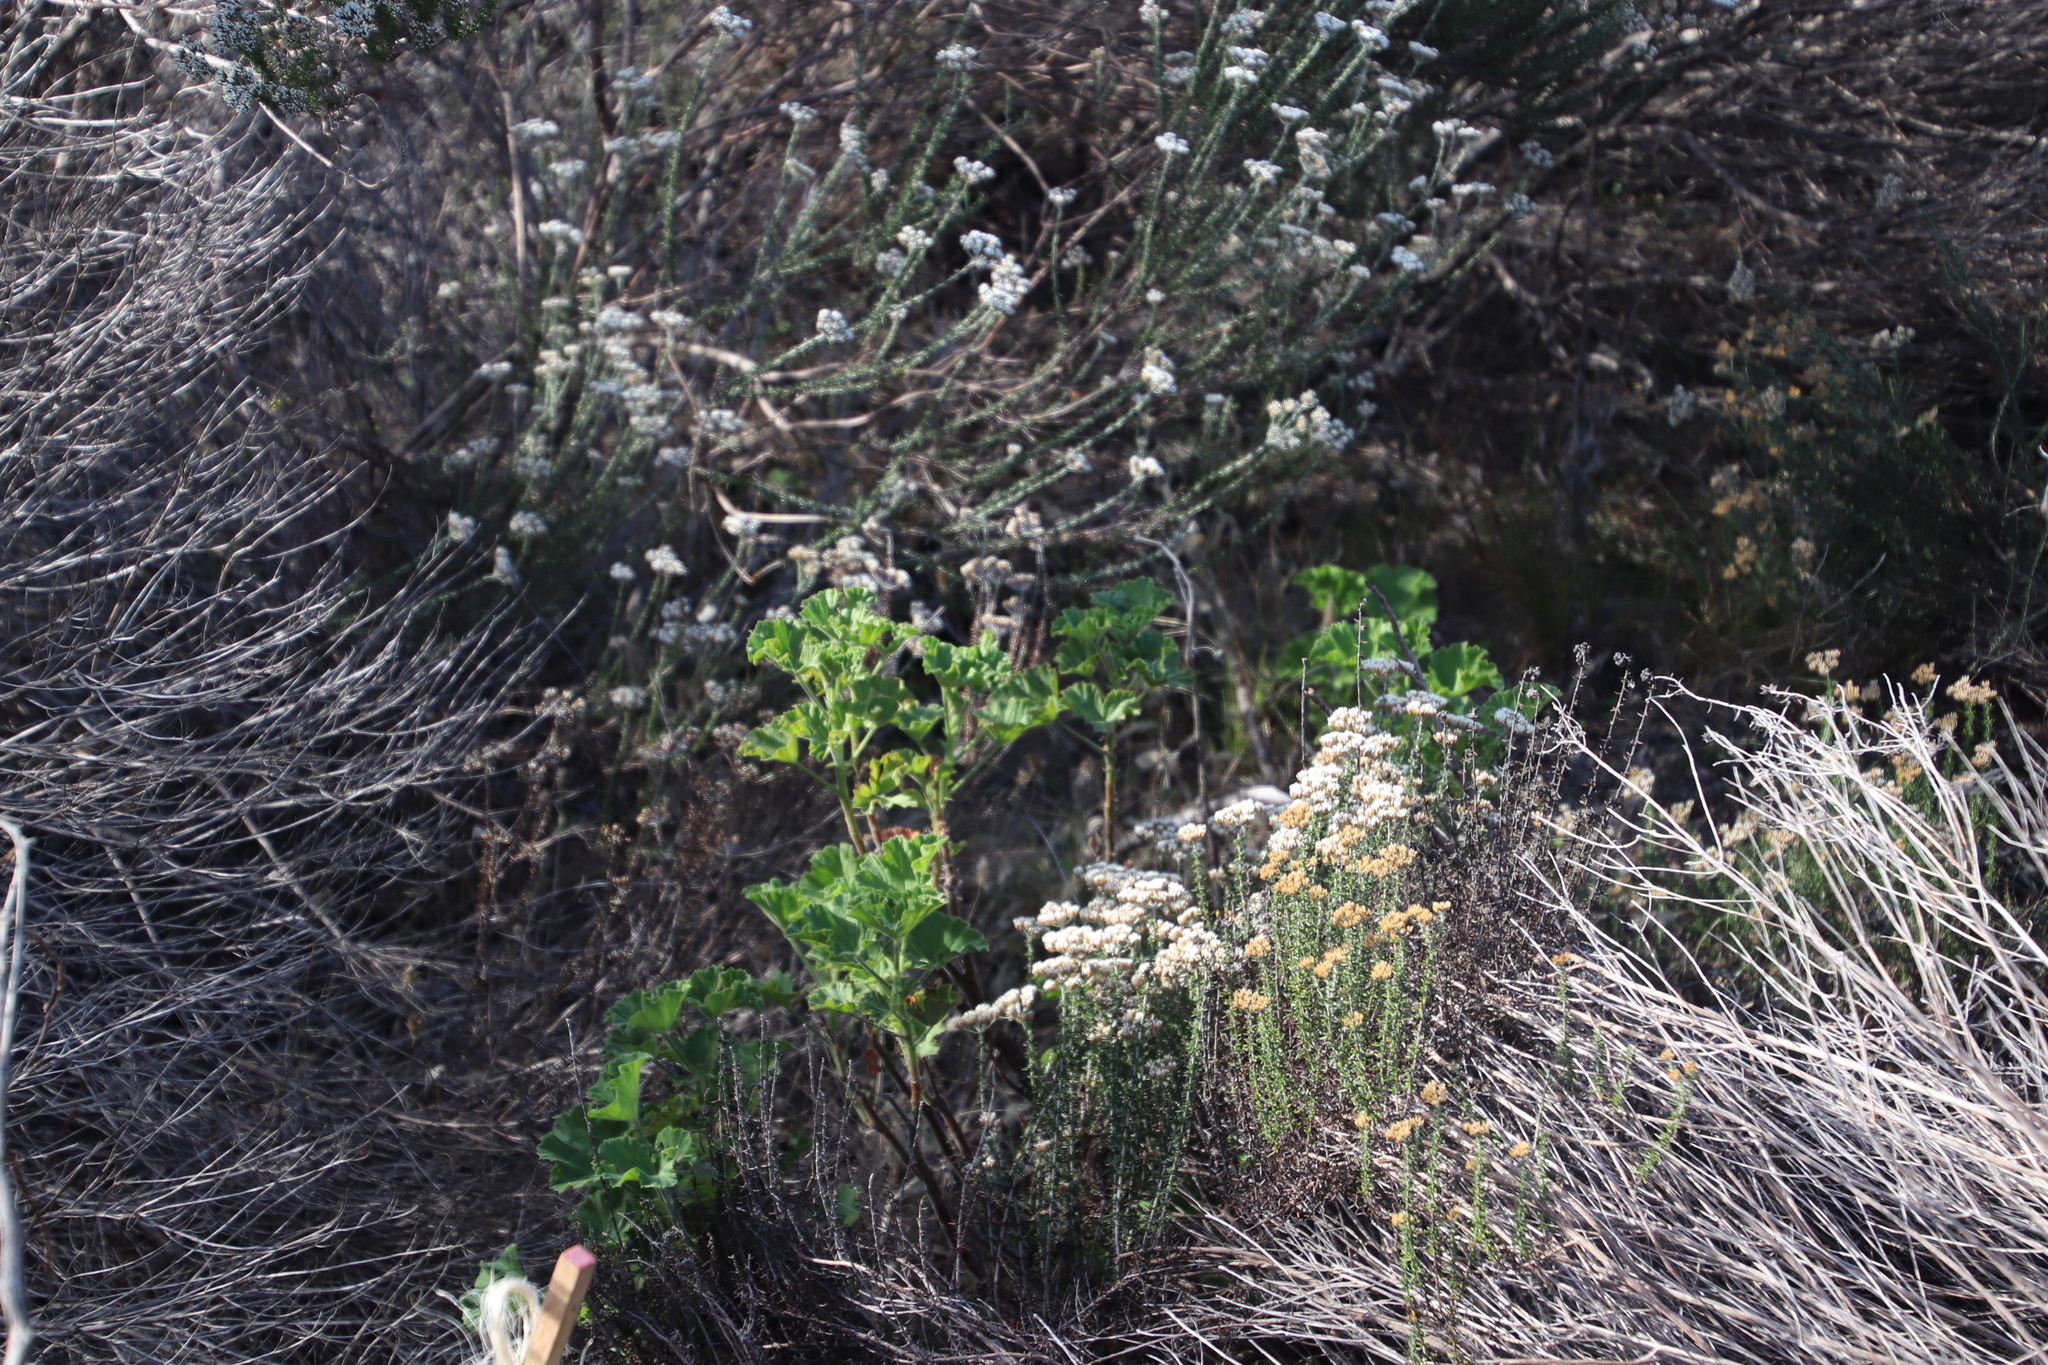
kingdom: Plantae
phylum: Tracheophyta
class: Magnoliopsida
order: Geraniales
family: Geraniaceae
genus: Pelargonium
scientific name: Pelargonium cucullatum
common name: Tree pelargonium
